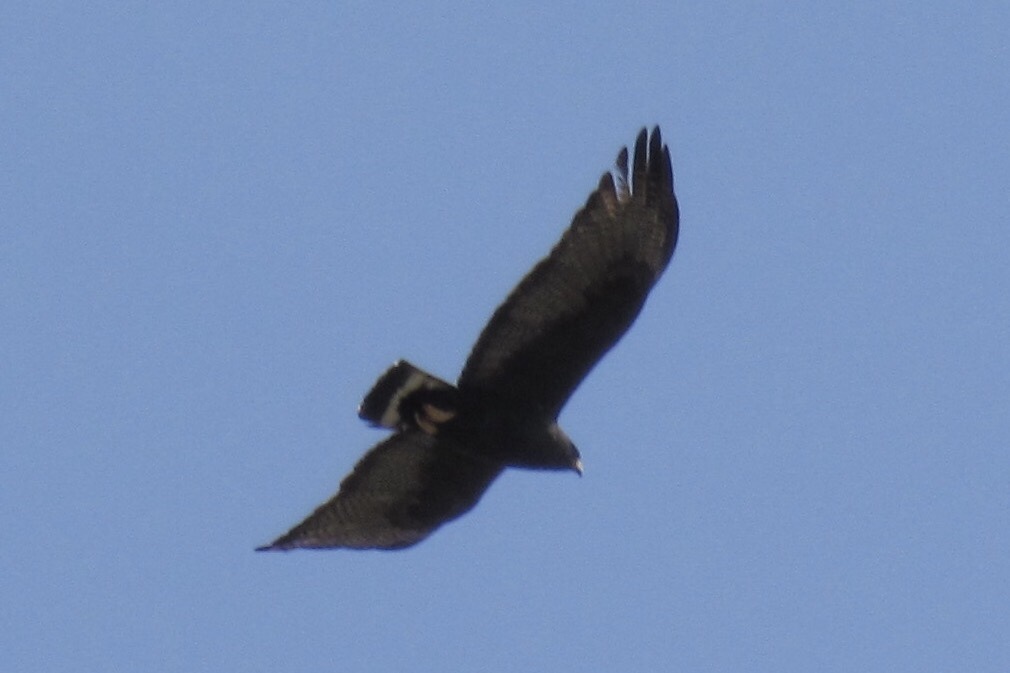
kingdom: Animalia
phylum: Chordata
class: Aves
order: Accipitriformes
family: Accipitridae
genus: Buteo
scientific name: Buteo albonotatus
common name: Zone-tailed hawk
